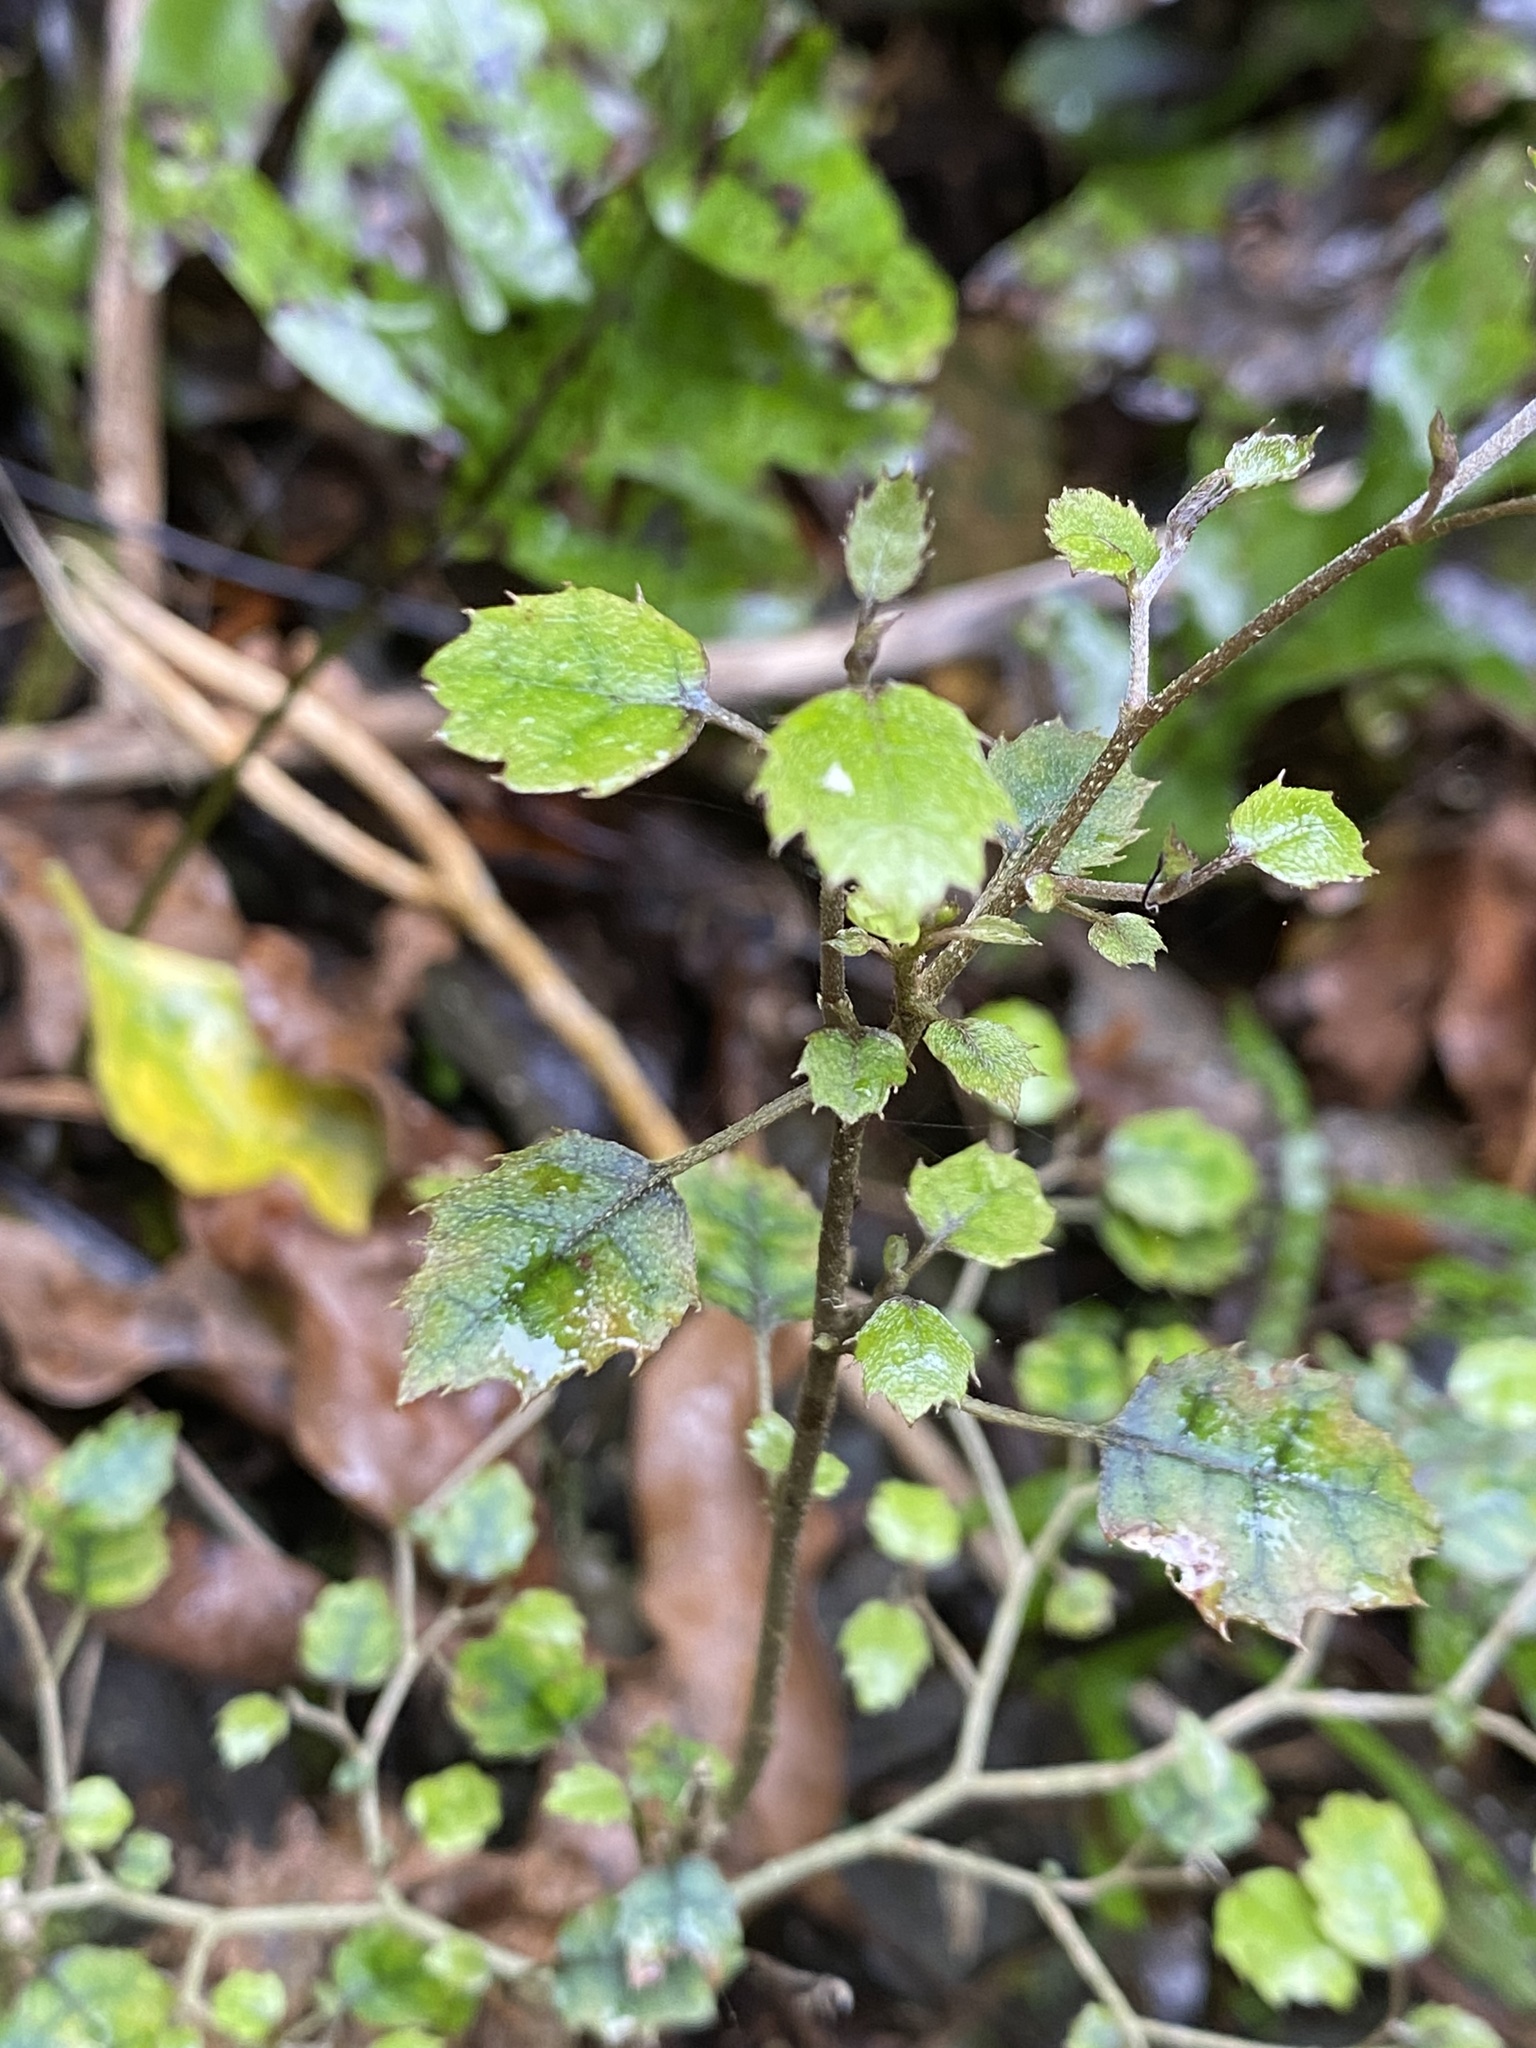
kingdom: Plantae
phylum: Tracheophyta
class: Magnoliopsida
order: Asterales
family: Rousseaceae
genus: Carpodetus
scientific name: Carpodetus serratus
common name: White mapau
